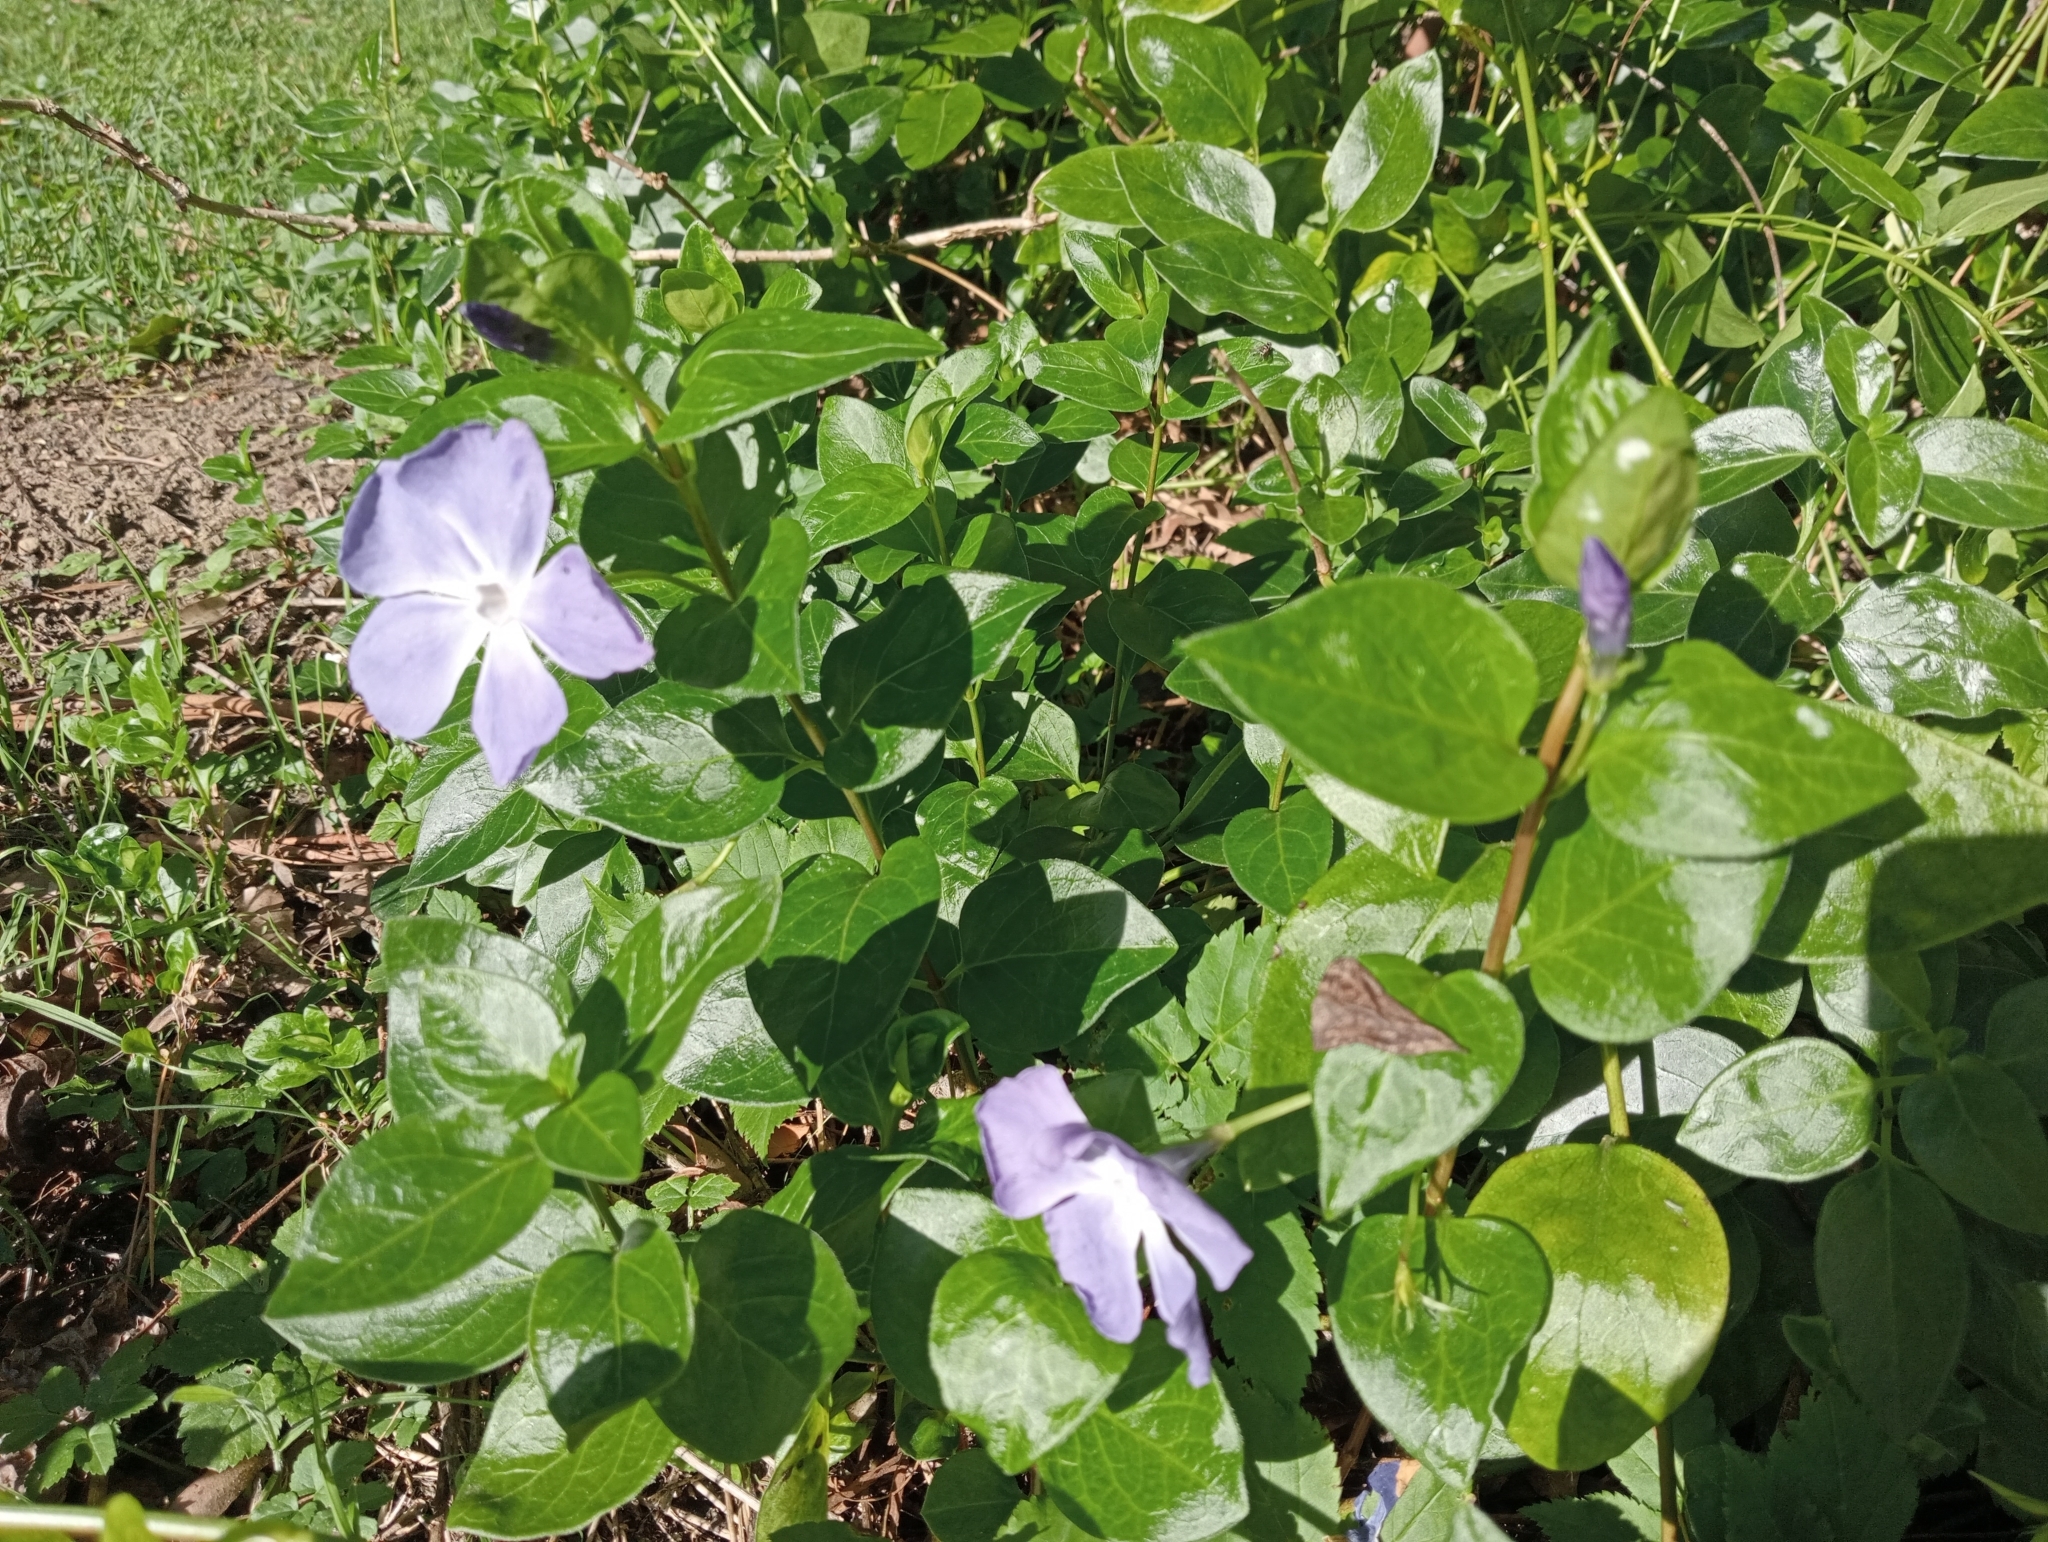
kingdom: Plantae
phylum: Tracheophyta
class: Magnoliopsida
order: Gentianales
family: Apocynaceae
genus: Vinca
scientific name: Vinca major
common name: Greater periwinkle
